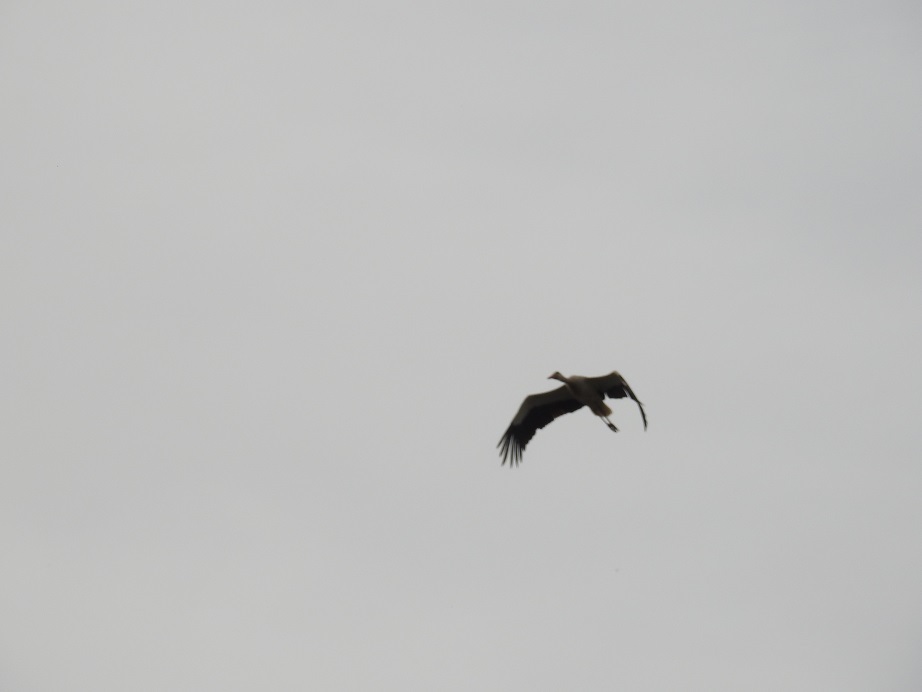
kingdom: Animalia
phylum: Chordata
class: Aves
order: Ciconiiformes
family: Ciconiidae
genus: Ciconia
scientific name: Ciconia ciconia
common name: White stork
